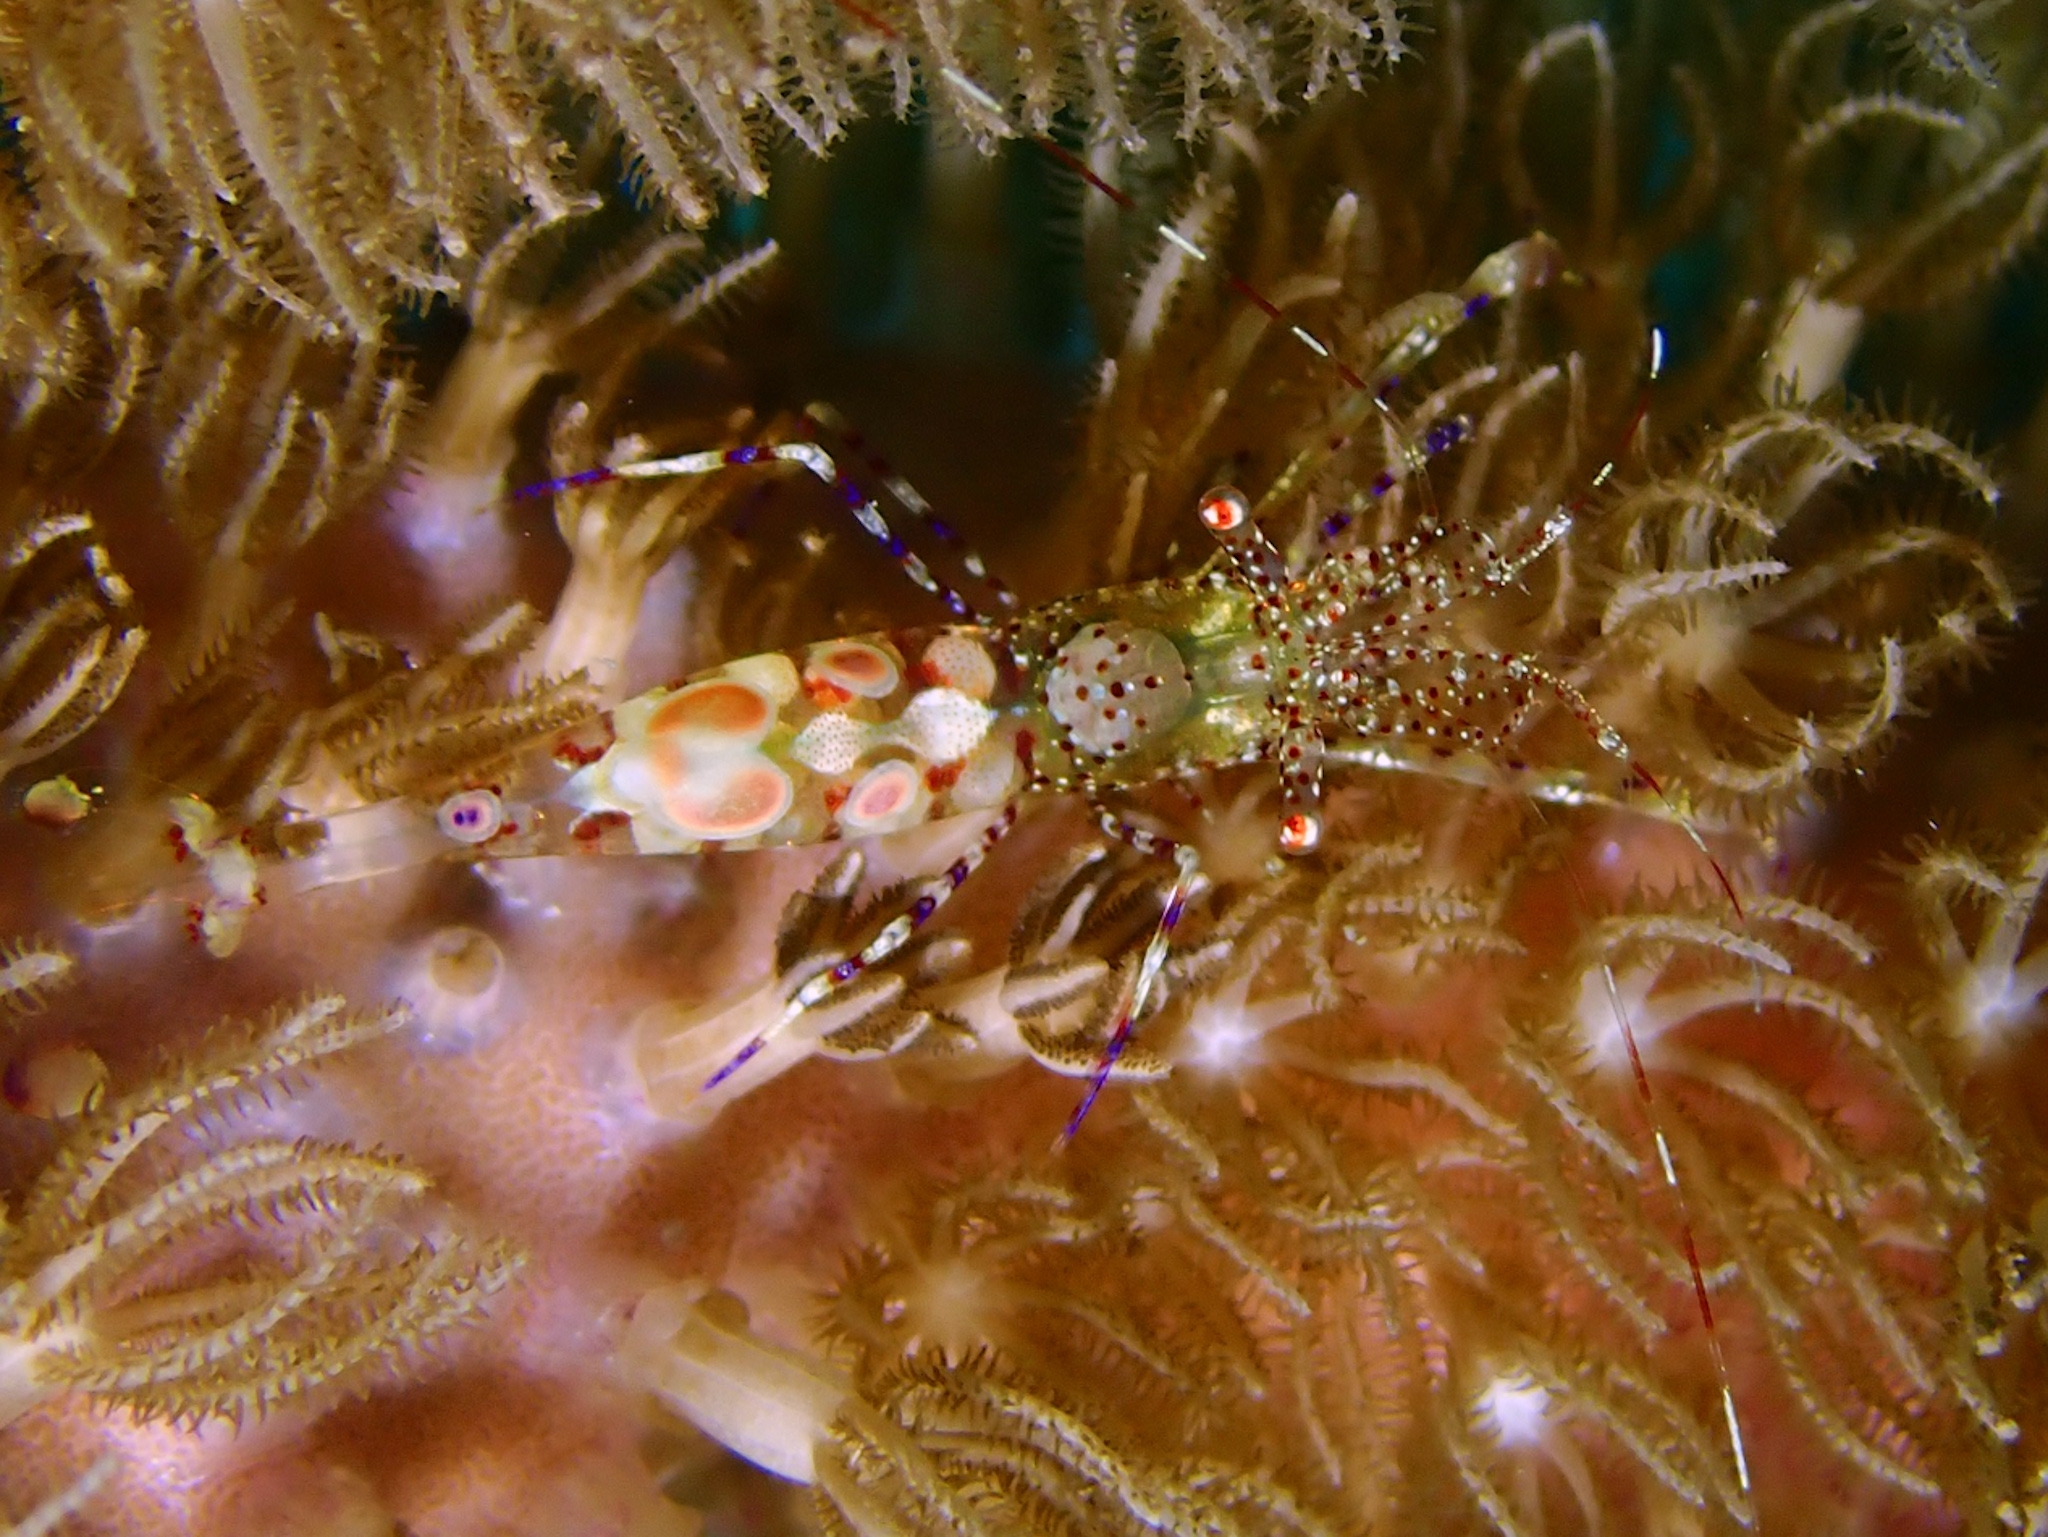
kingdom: Animalia
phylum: Arthropoda
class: Malacostraca
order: Decapoda
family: Palaemonidae
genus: Periclimenes
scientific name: Periclimenes yucatanicus
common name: Spotted cleaning shrimp
